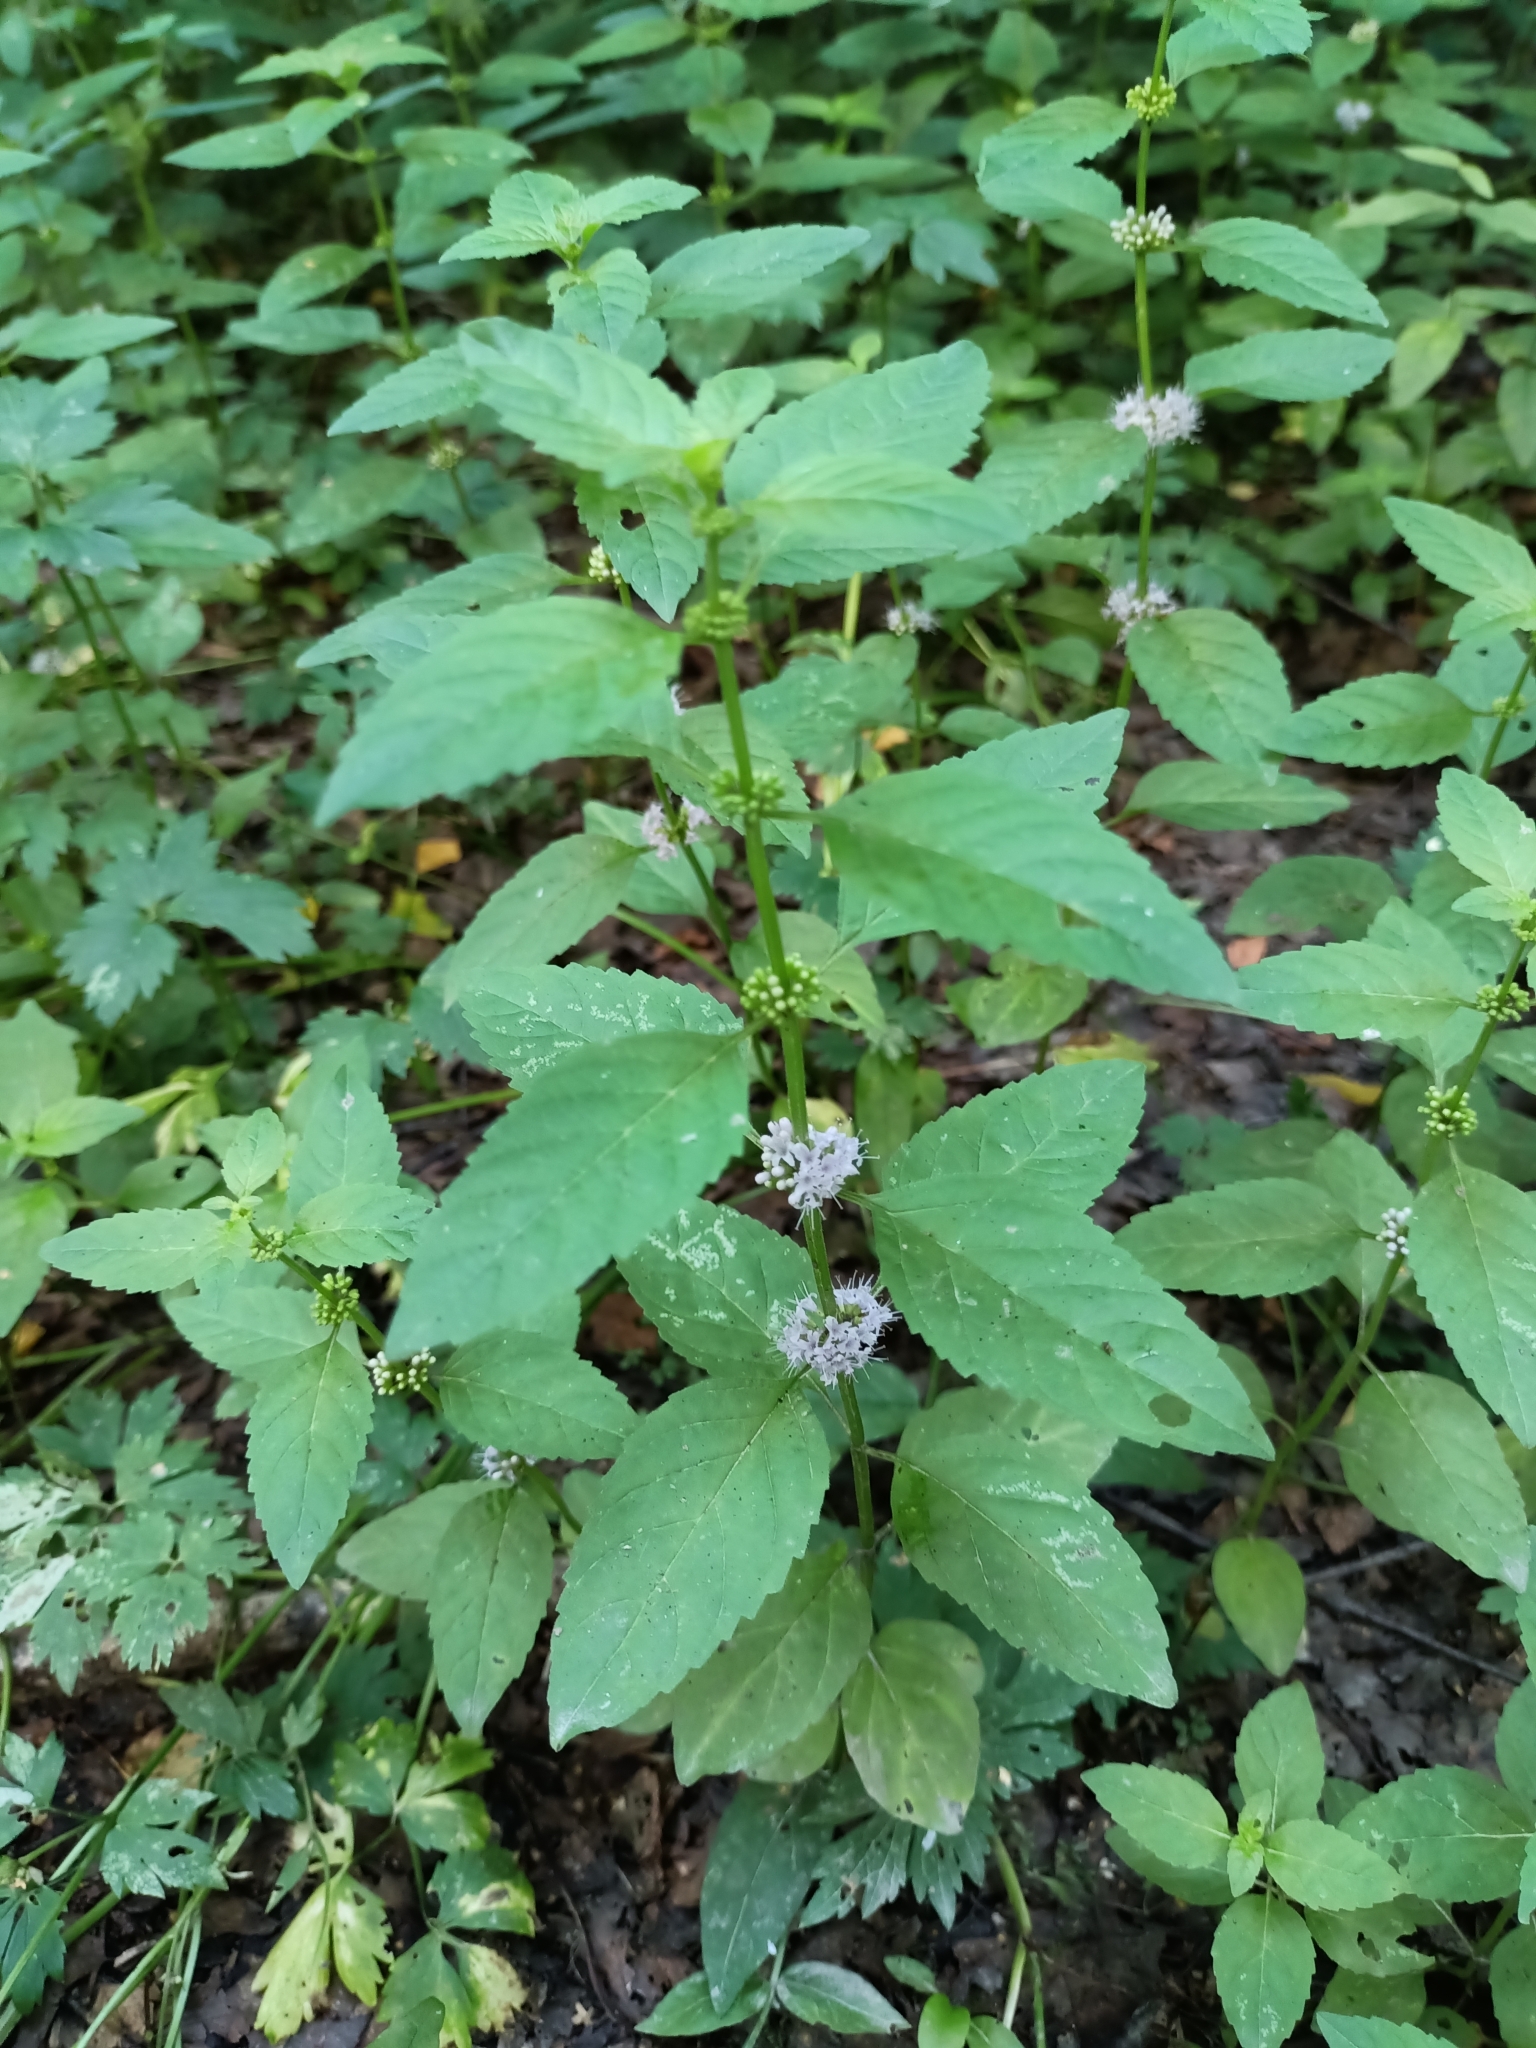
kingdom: Plantae
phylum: Tracheophyta
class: Magnoliopsida
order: Lamiales
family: Lamiaceae
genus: Mentha
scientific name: Mentha arvensis
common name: Corn mint
